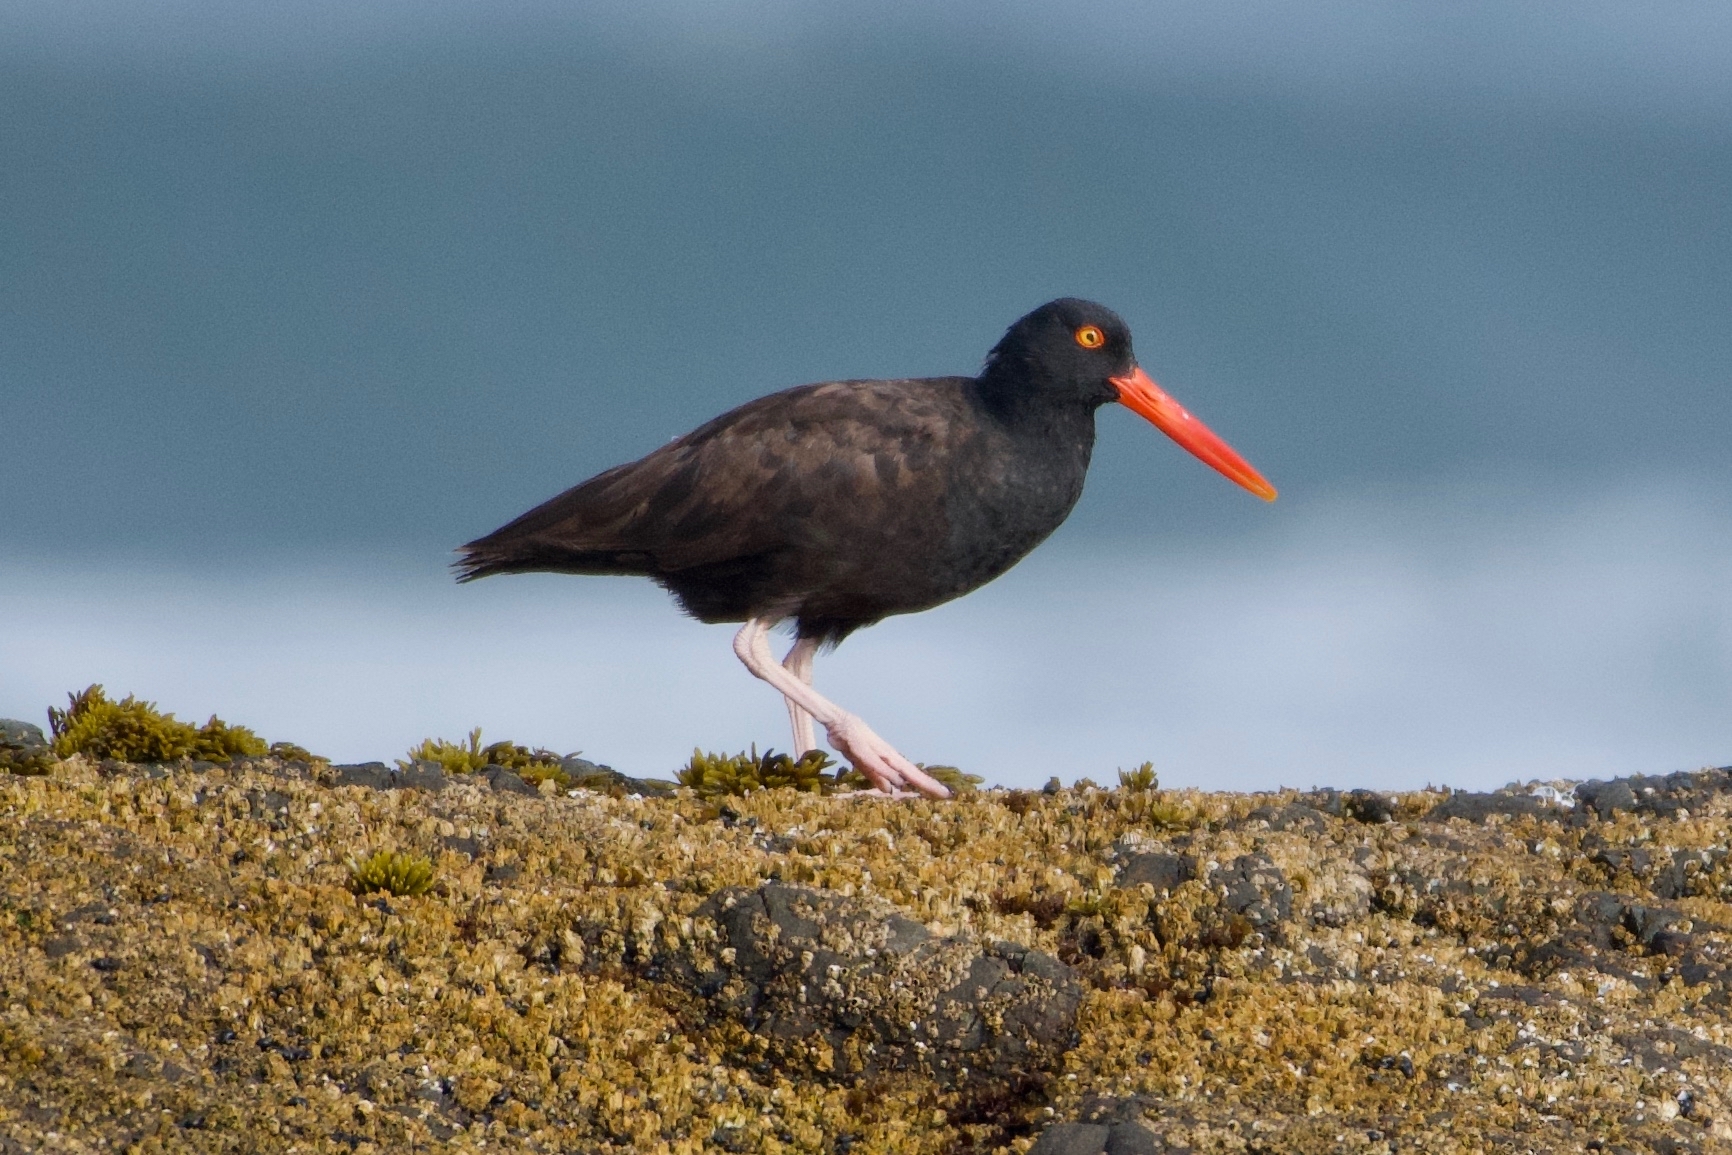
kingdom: Animalia
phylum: Chordata
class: Aves
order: Charadriiformes
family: Haematopodidae
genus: Haematopus
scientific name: Haematopus bachmani
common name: Black oystercatcher
